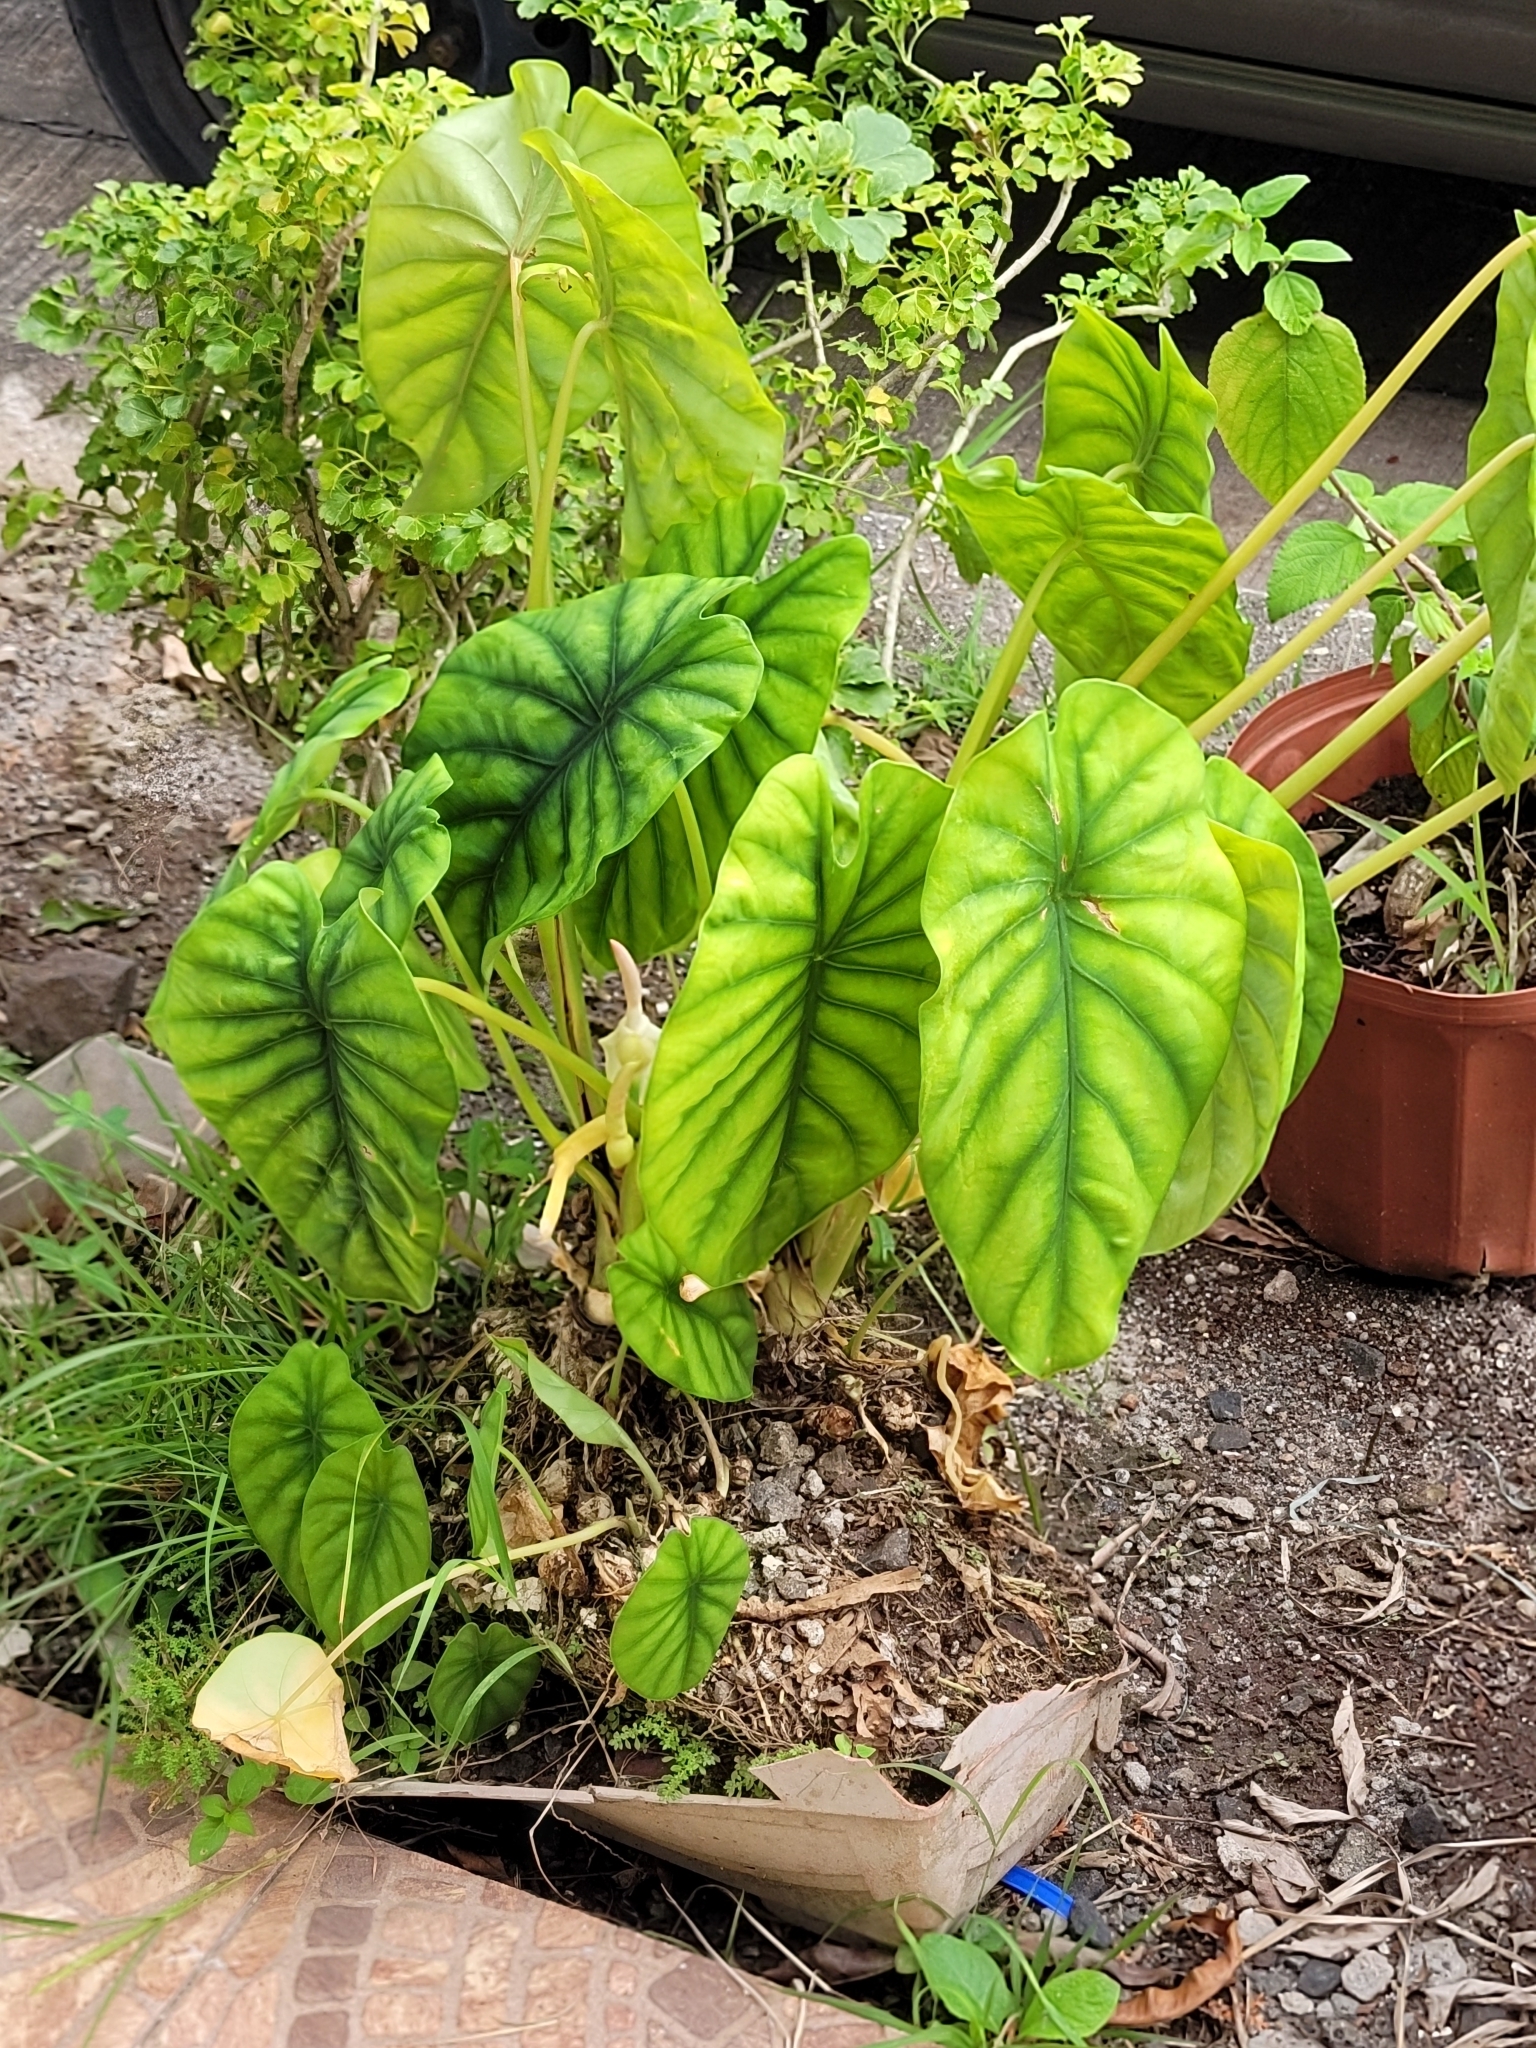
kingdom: Plantae
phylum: Tracheophyta
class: Liliopsida
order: Alismatales
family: Araceae
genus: Colocasia
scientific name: Colocasia esculenta
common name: Taro
